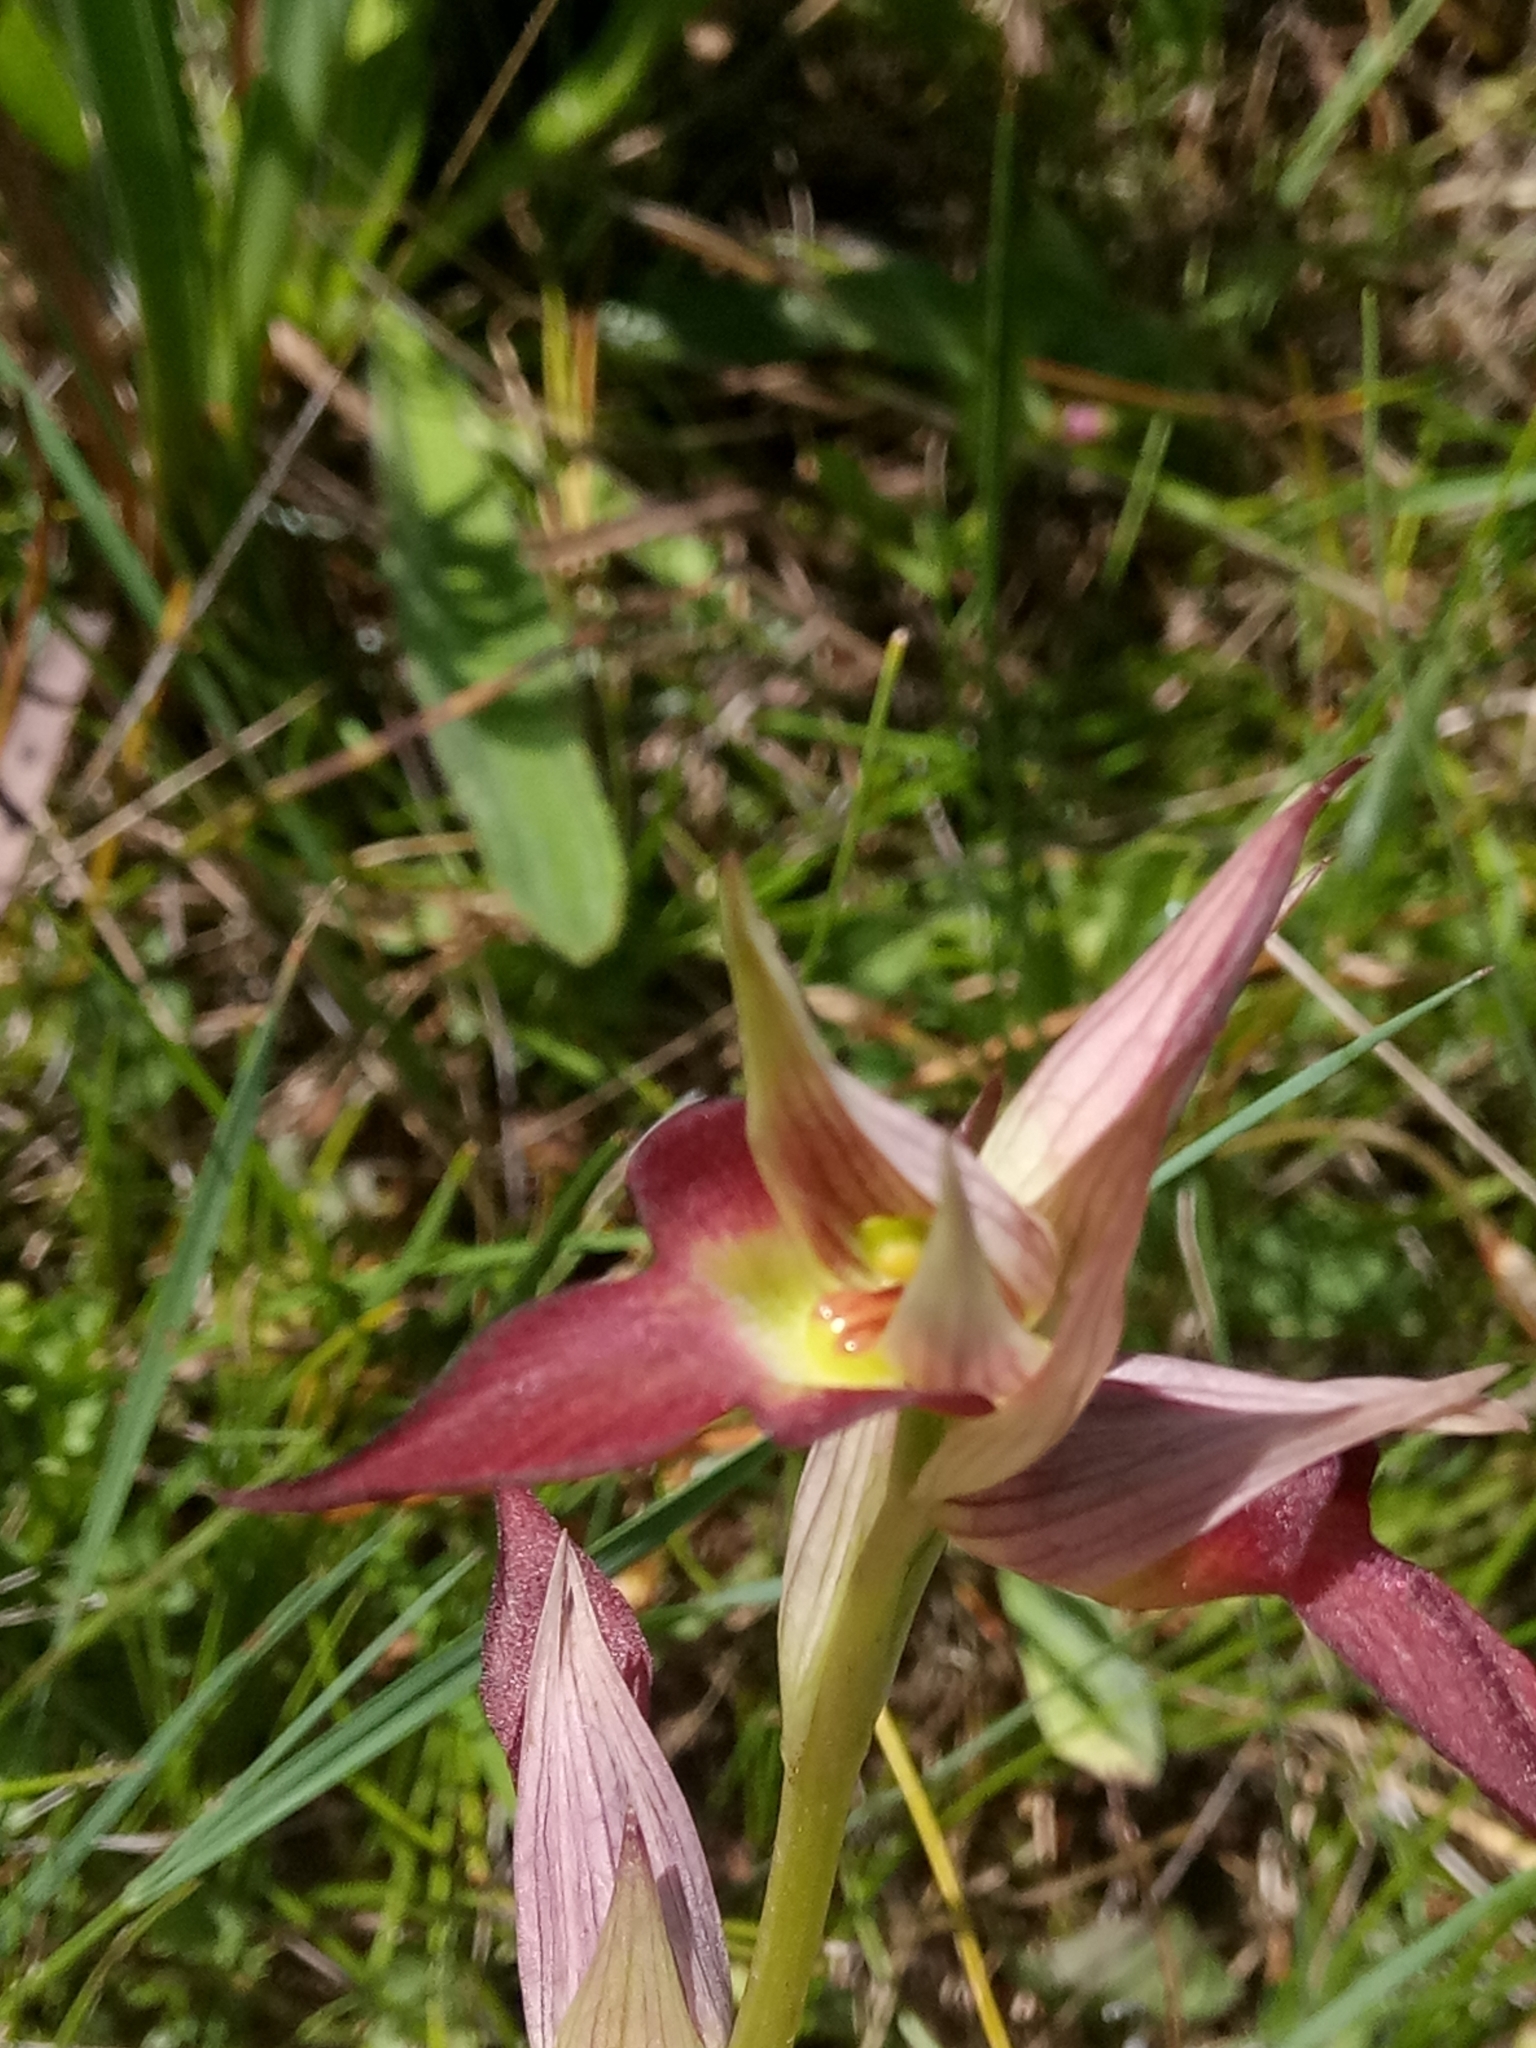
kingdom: Plantae
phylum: Tracheophyta
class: Liliopsida
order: Asparagales
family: Orchidaceae
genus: Serapias
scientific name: Serapias lingua
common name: Tongue-orchid
